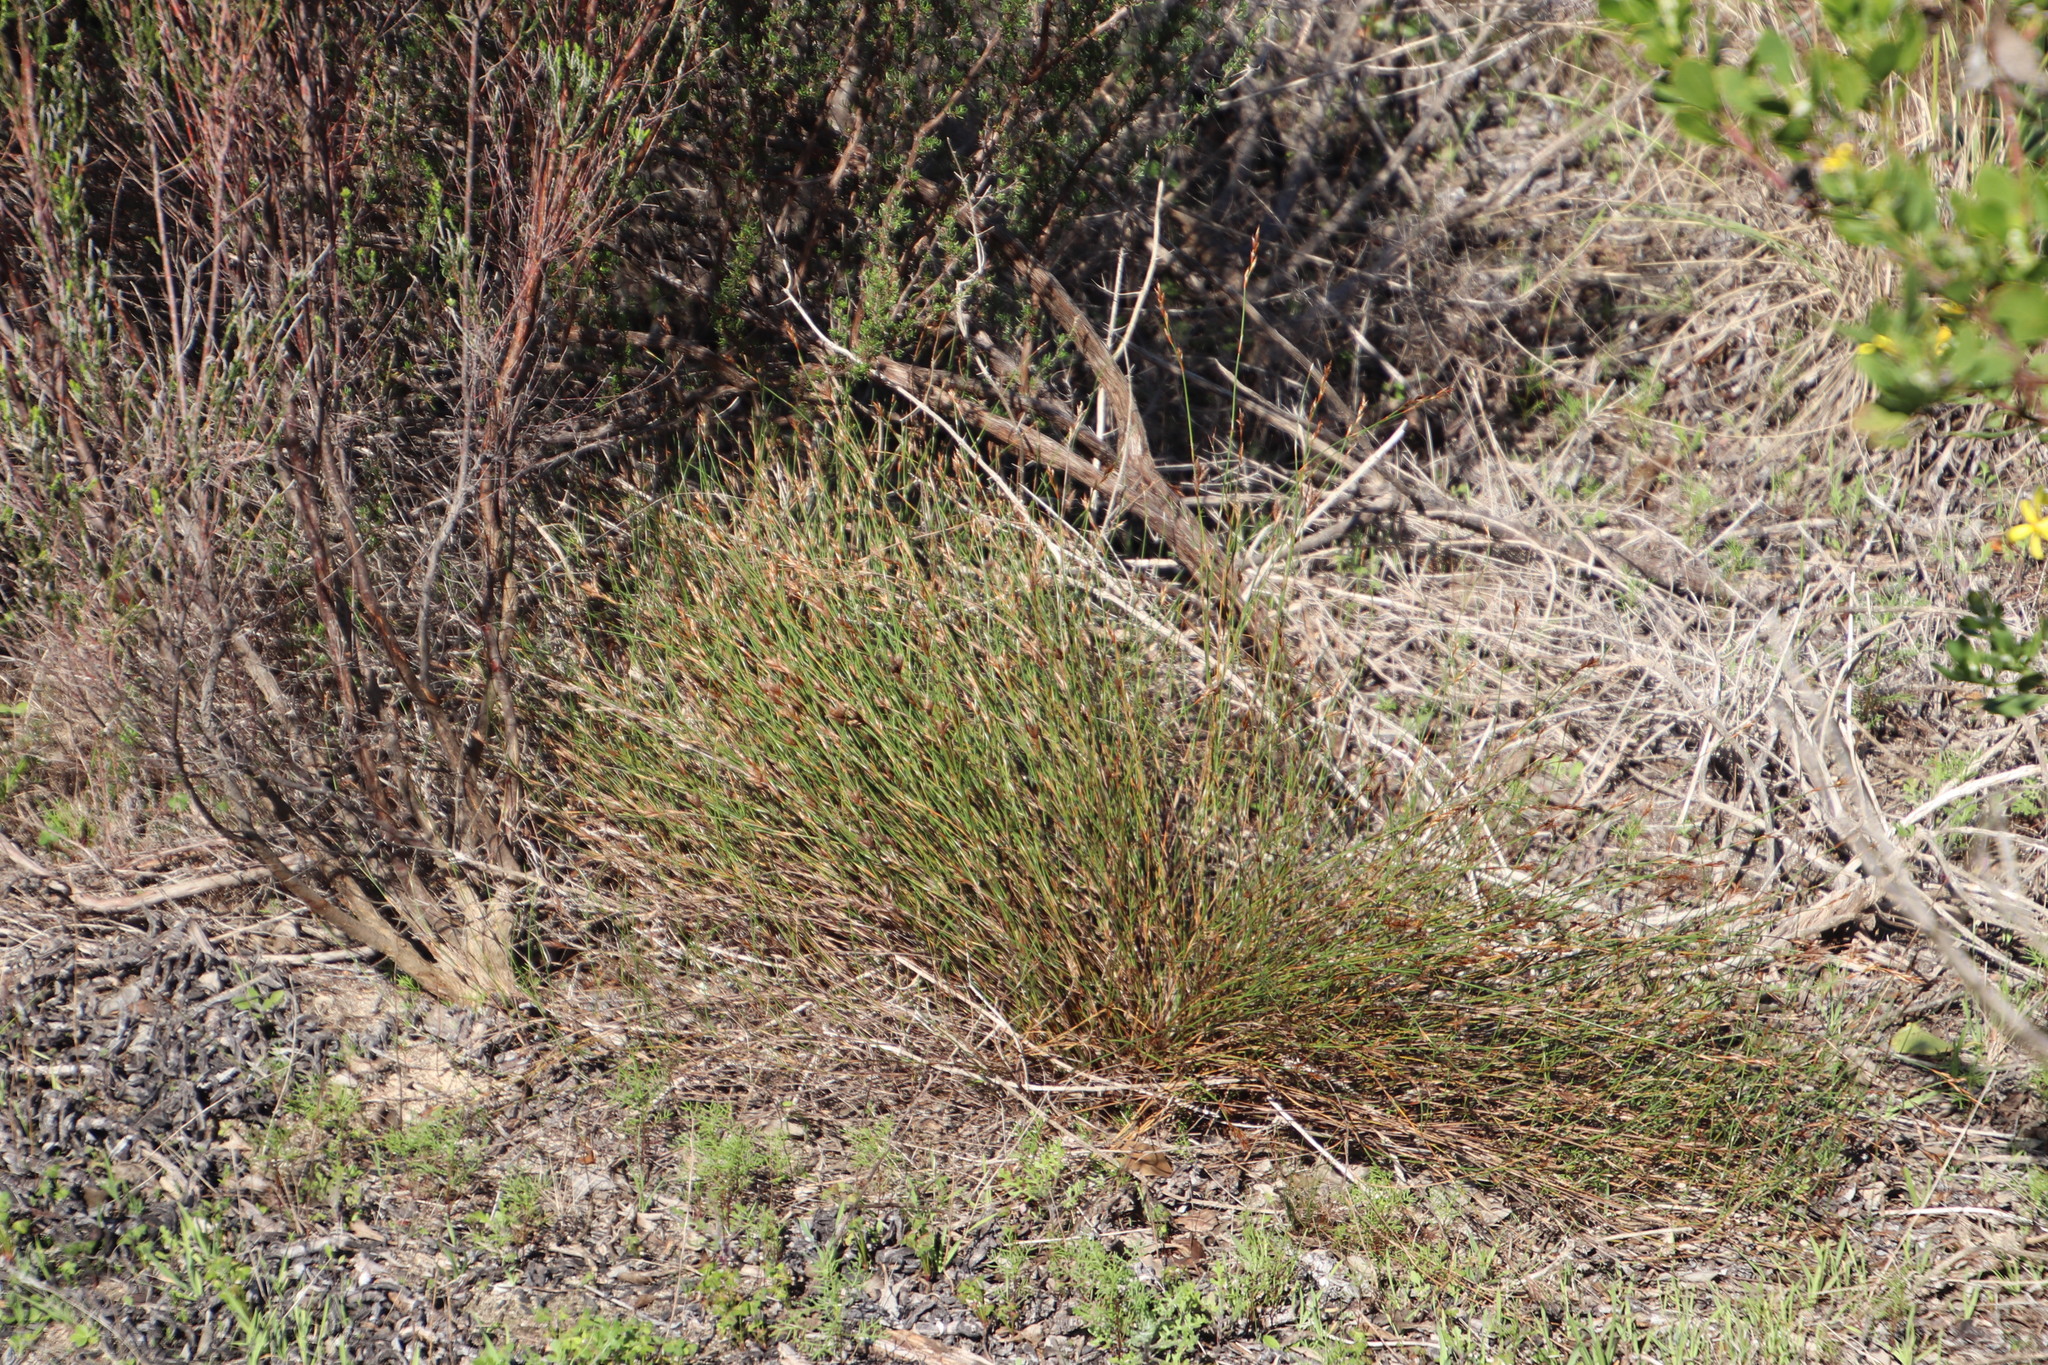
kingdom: Plantae
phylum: Tracheophyta
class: Liliopsida
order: Poales
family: Restionaceae
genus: Restio
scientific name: Restio capensis
